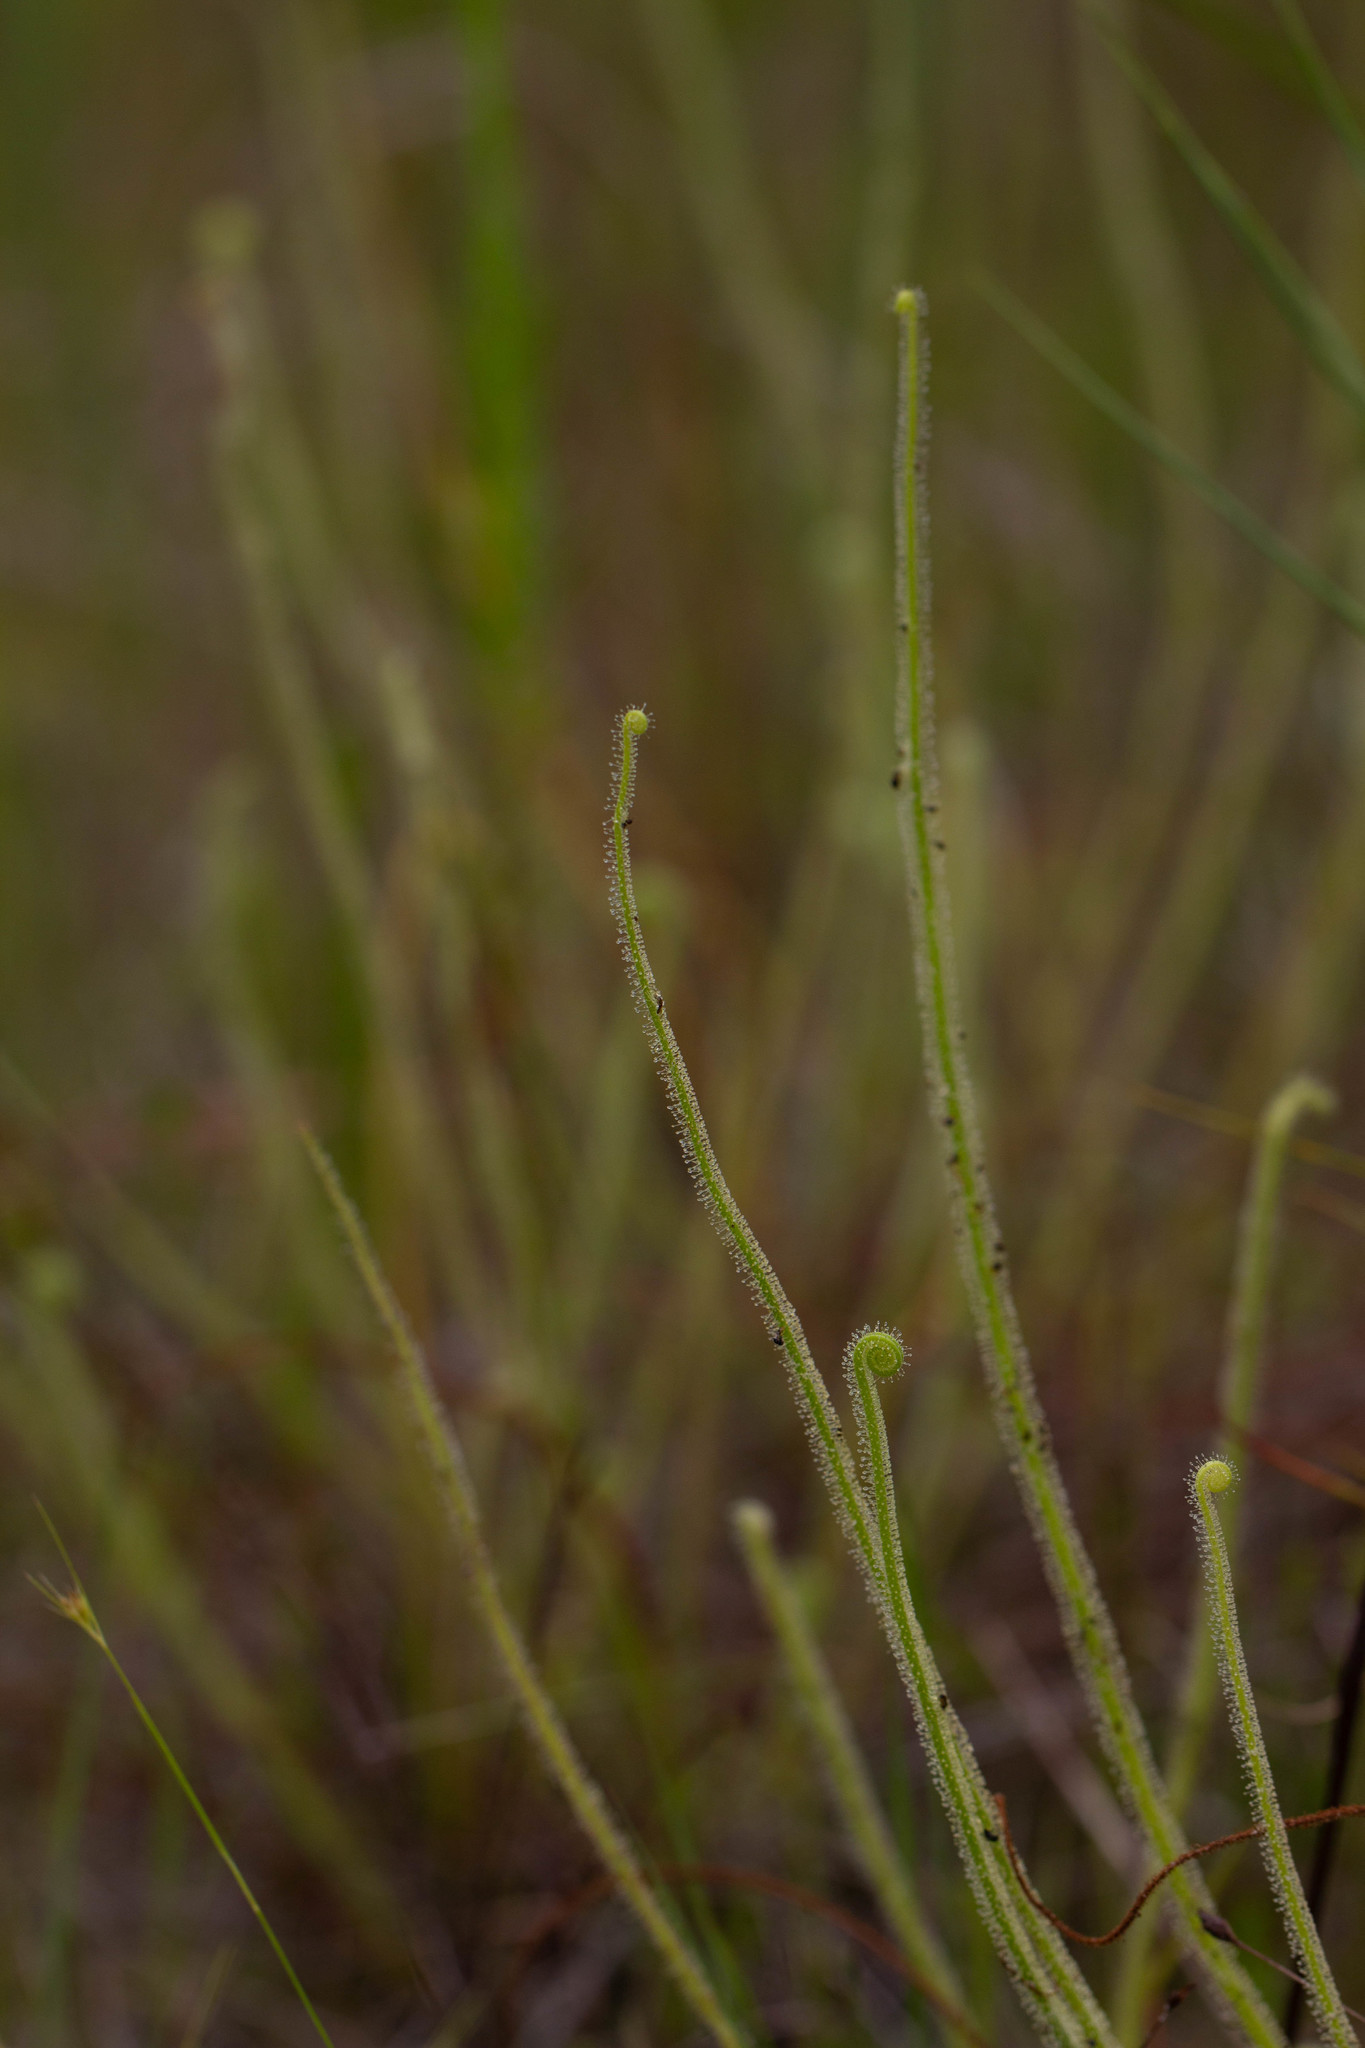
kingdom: Plantae
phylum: Tracheophyta
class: Magnoliopsida
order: Caryophyllales
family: Droseraceae
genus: Drosera
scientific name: Drosera filiformis
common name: Dew-thread
